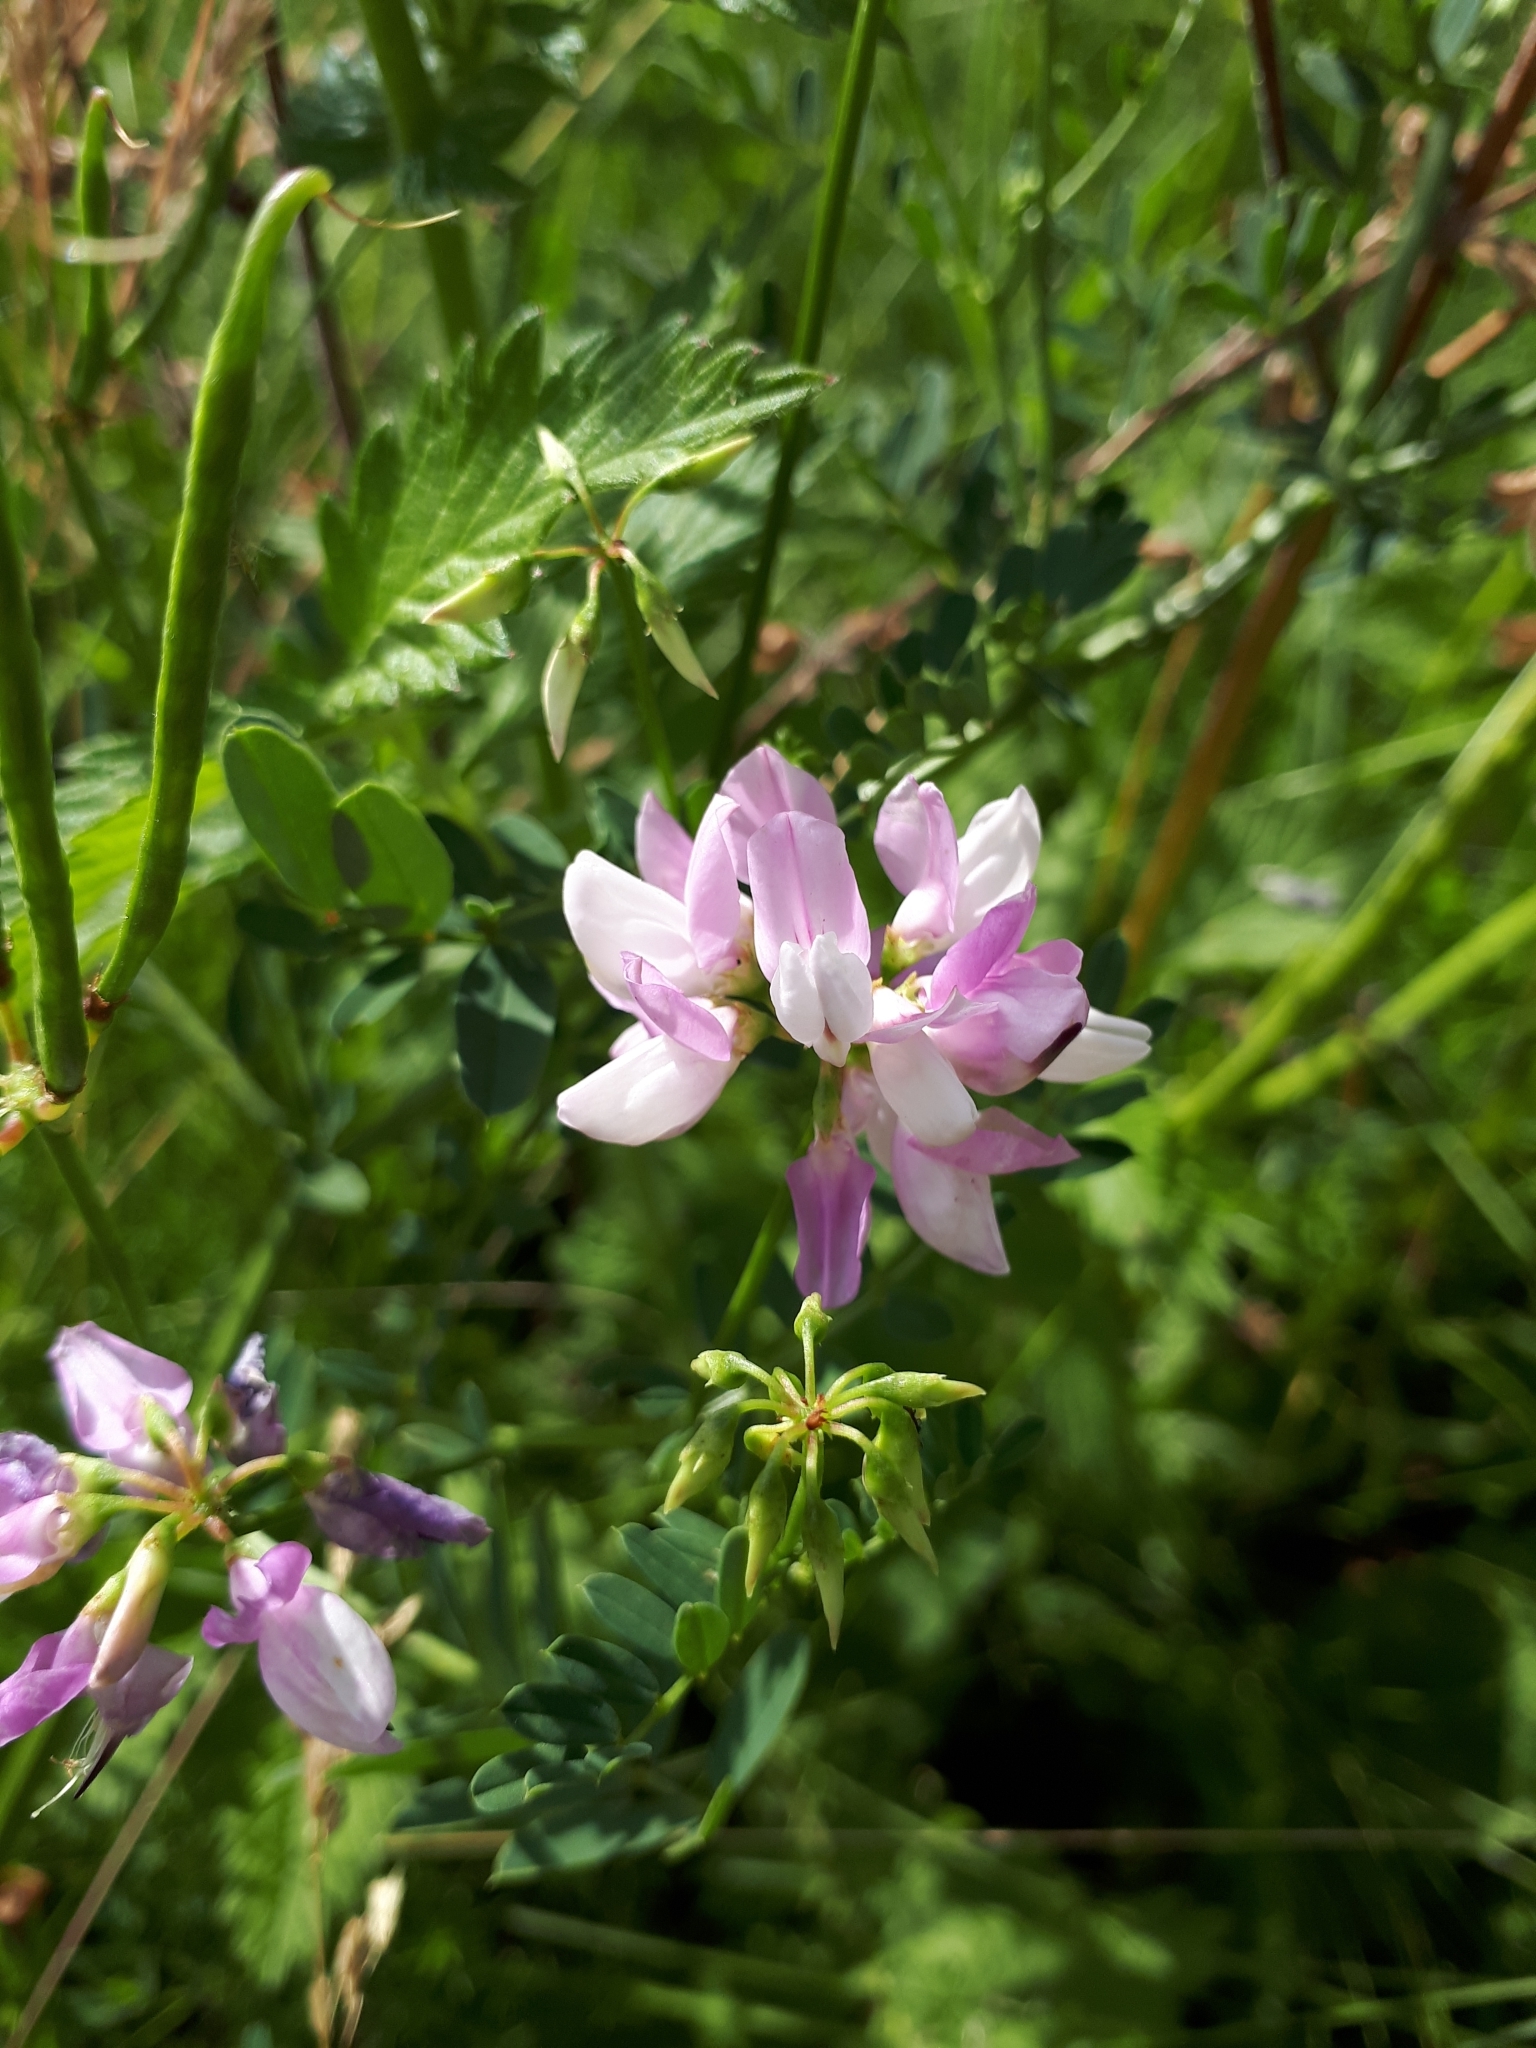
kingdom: Plantae
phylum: Tracheophyta
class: Magnoliopsida
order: Fabales
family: Fabaceae
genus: Coronilla
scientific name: Coronilla varia
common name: Crownvetch
